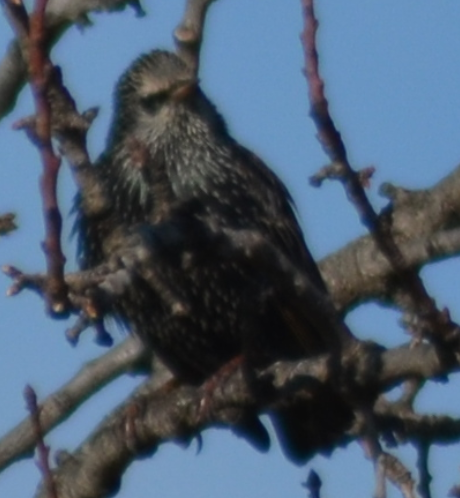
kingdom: Animalia
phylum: Chordata
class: Aves
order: Passeriformes
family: Sturnidae
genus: Sturnus
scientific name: Sturnus vulgaris
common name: Common starling
